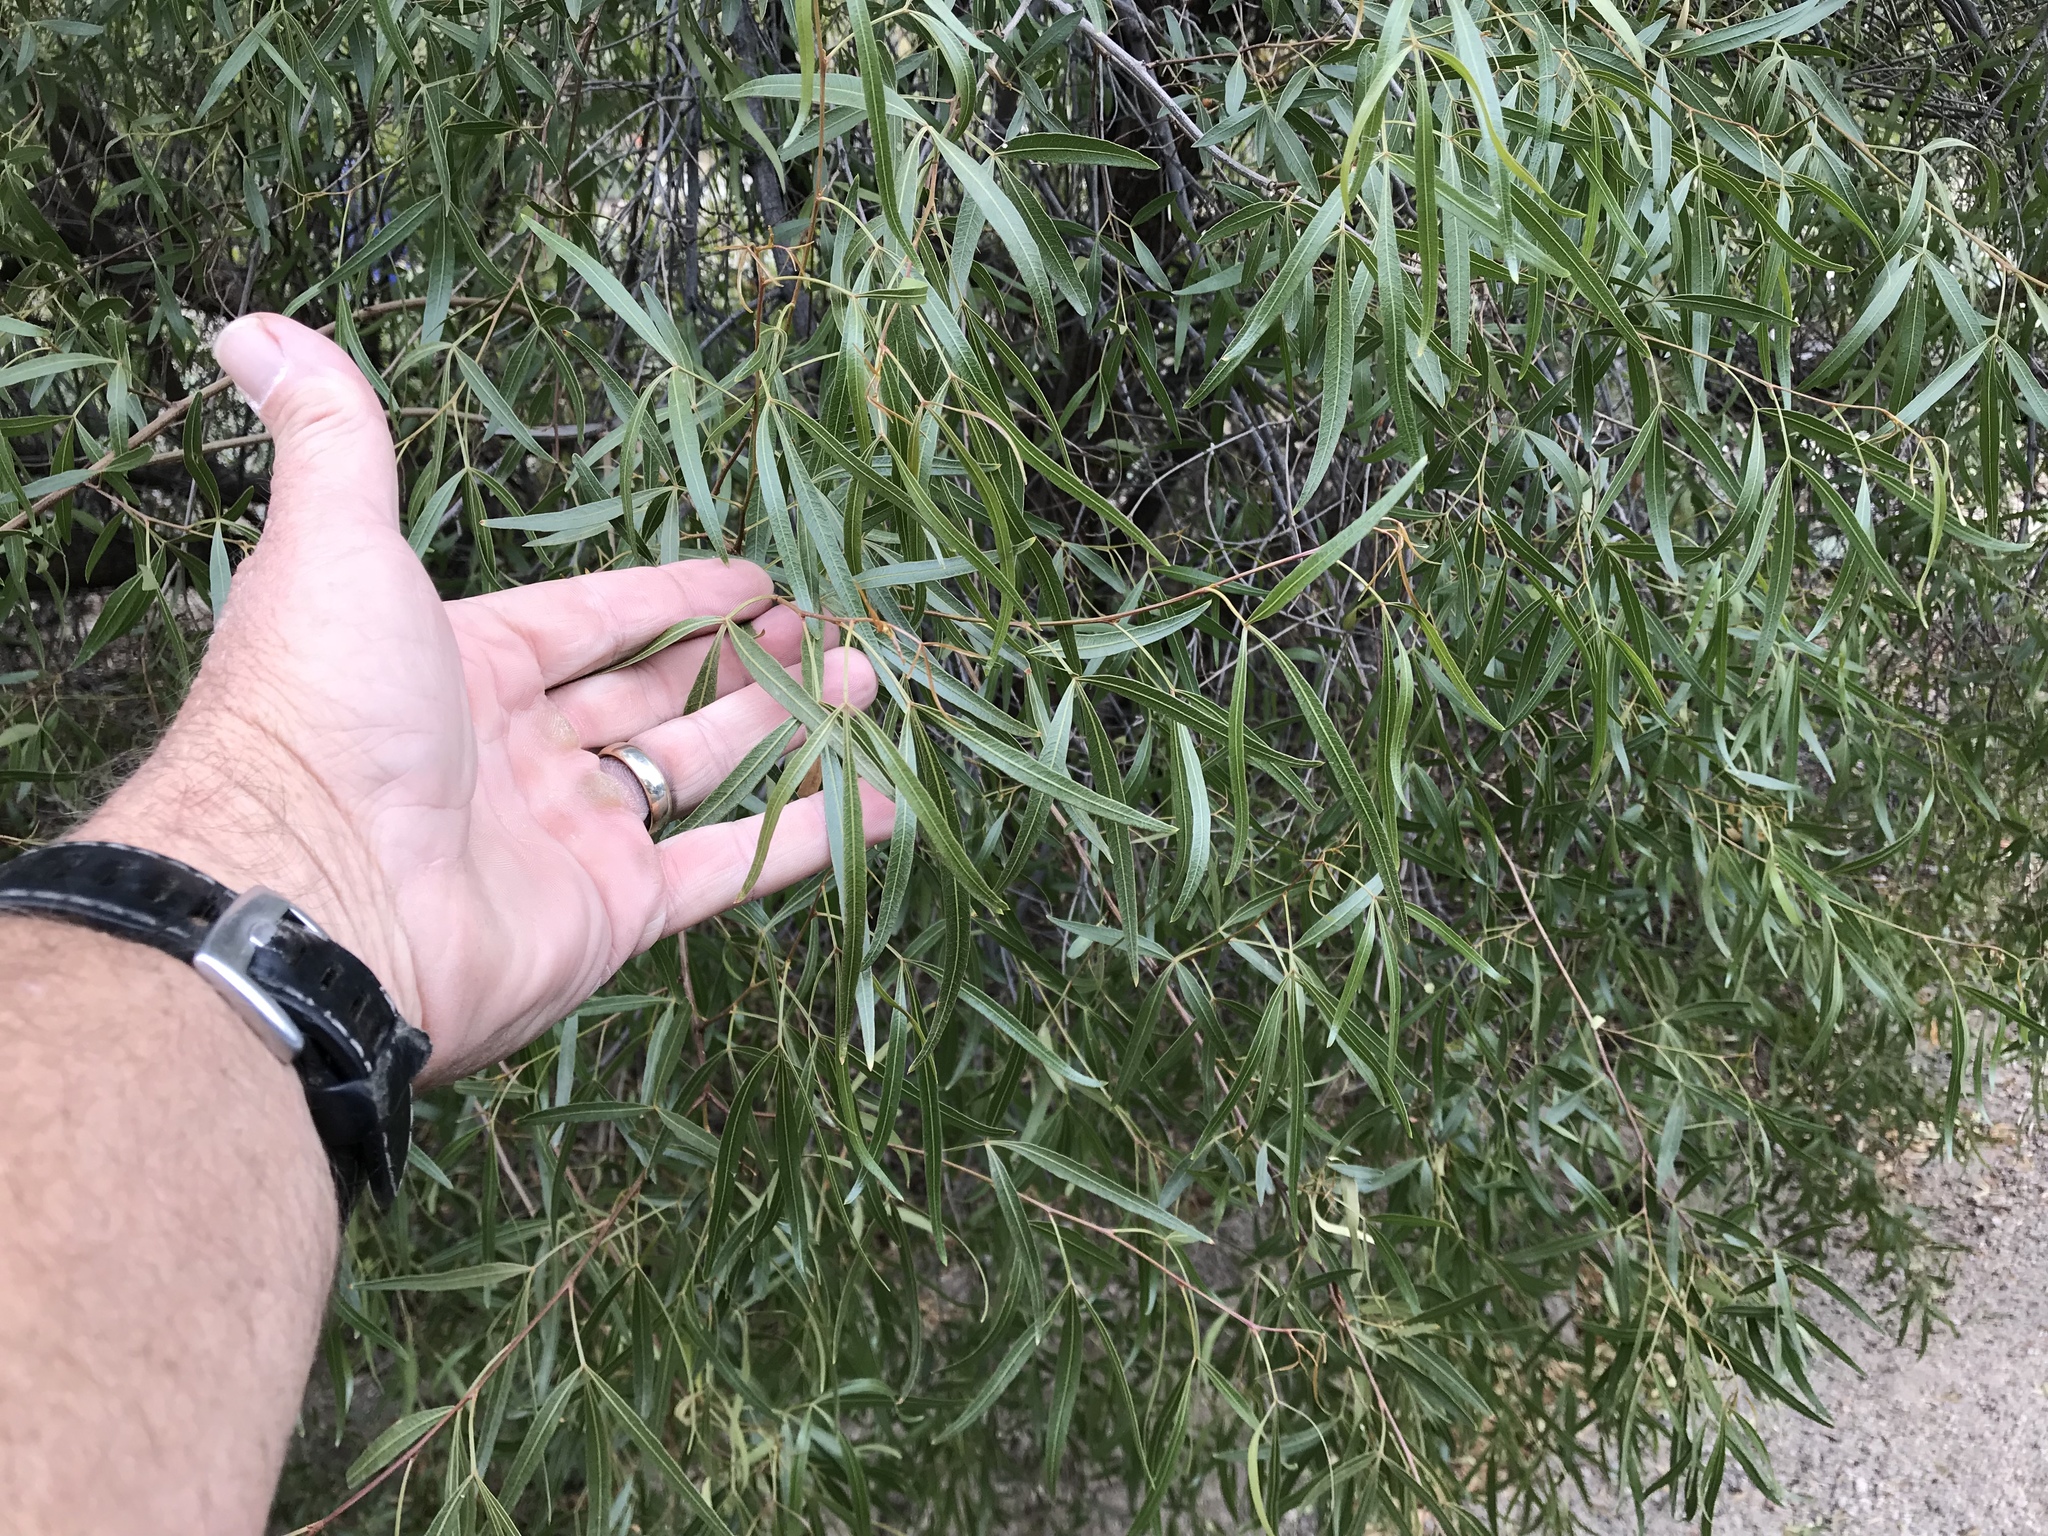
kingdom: Plantae
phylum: Tracheophyta
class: Magnoliopsida
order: Sapindales
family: Anacardiaceae
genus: Searsia
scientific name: Searsia lancea
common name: Cashew
